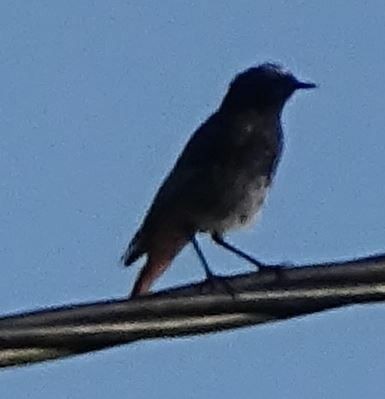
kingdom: Animalia
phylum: Chordata
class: Aves
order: Passeriformes
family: Muscicapidae
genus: Phoenicurus
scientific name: Phoenicurus ochruros
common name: Black redstart
